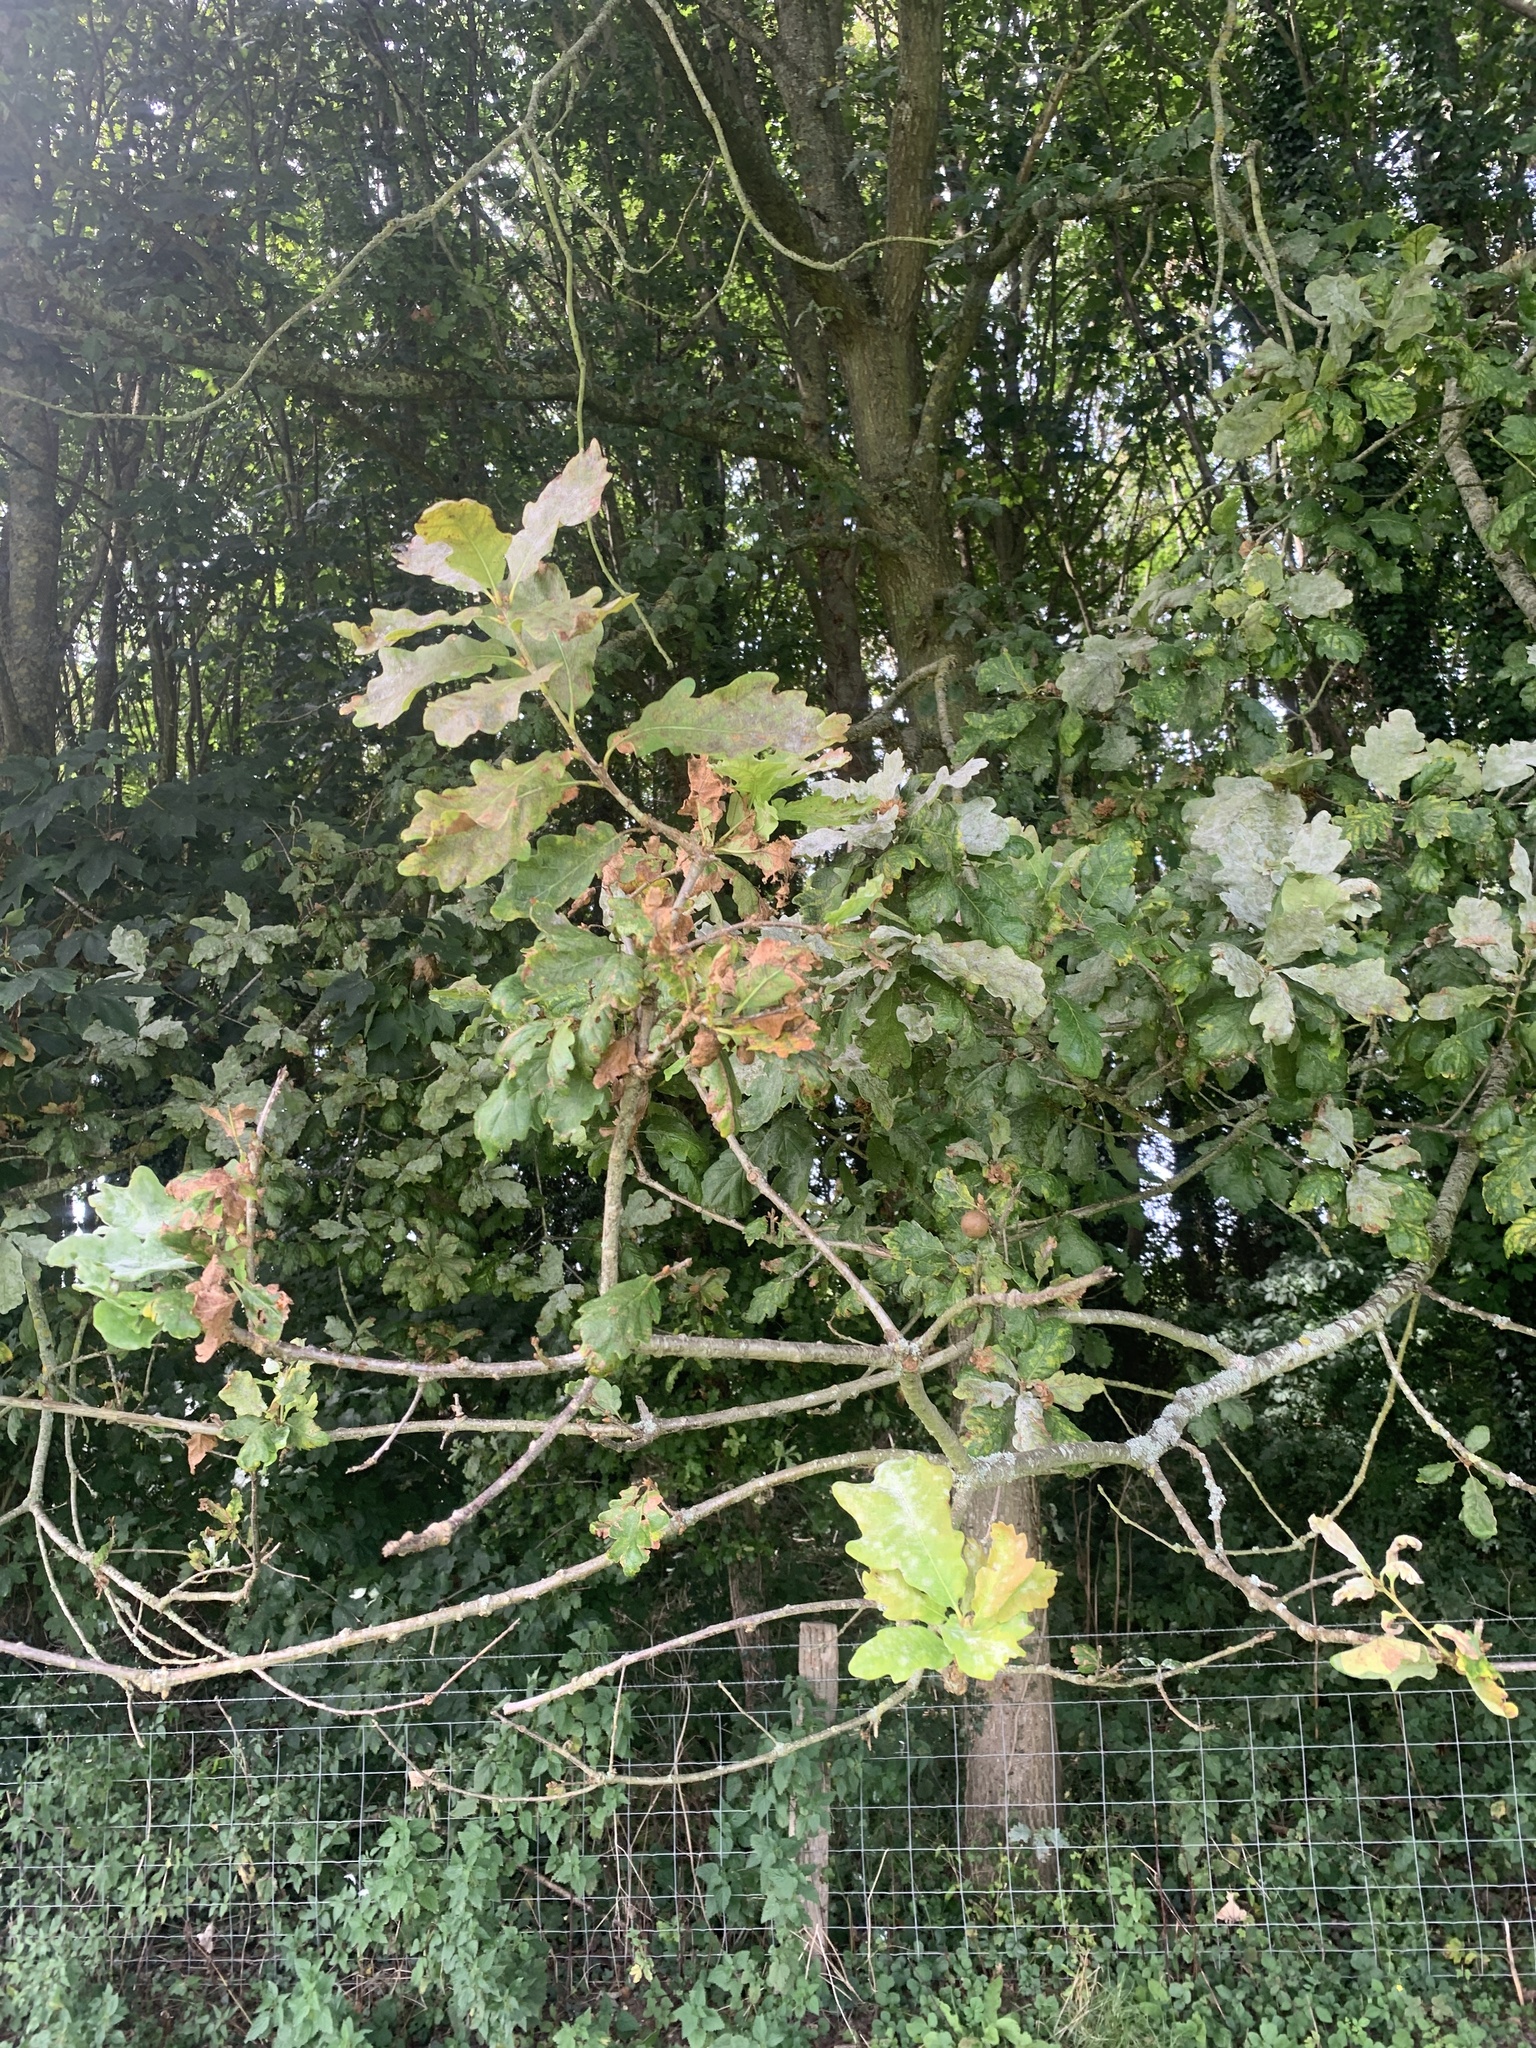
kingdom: Plantae
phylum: Tracheophyta
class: Magnoliopsida
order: Fagales
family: Fagaceae
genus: Quercus
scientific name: Quercus robur
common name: Pedunculate oak
